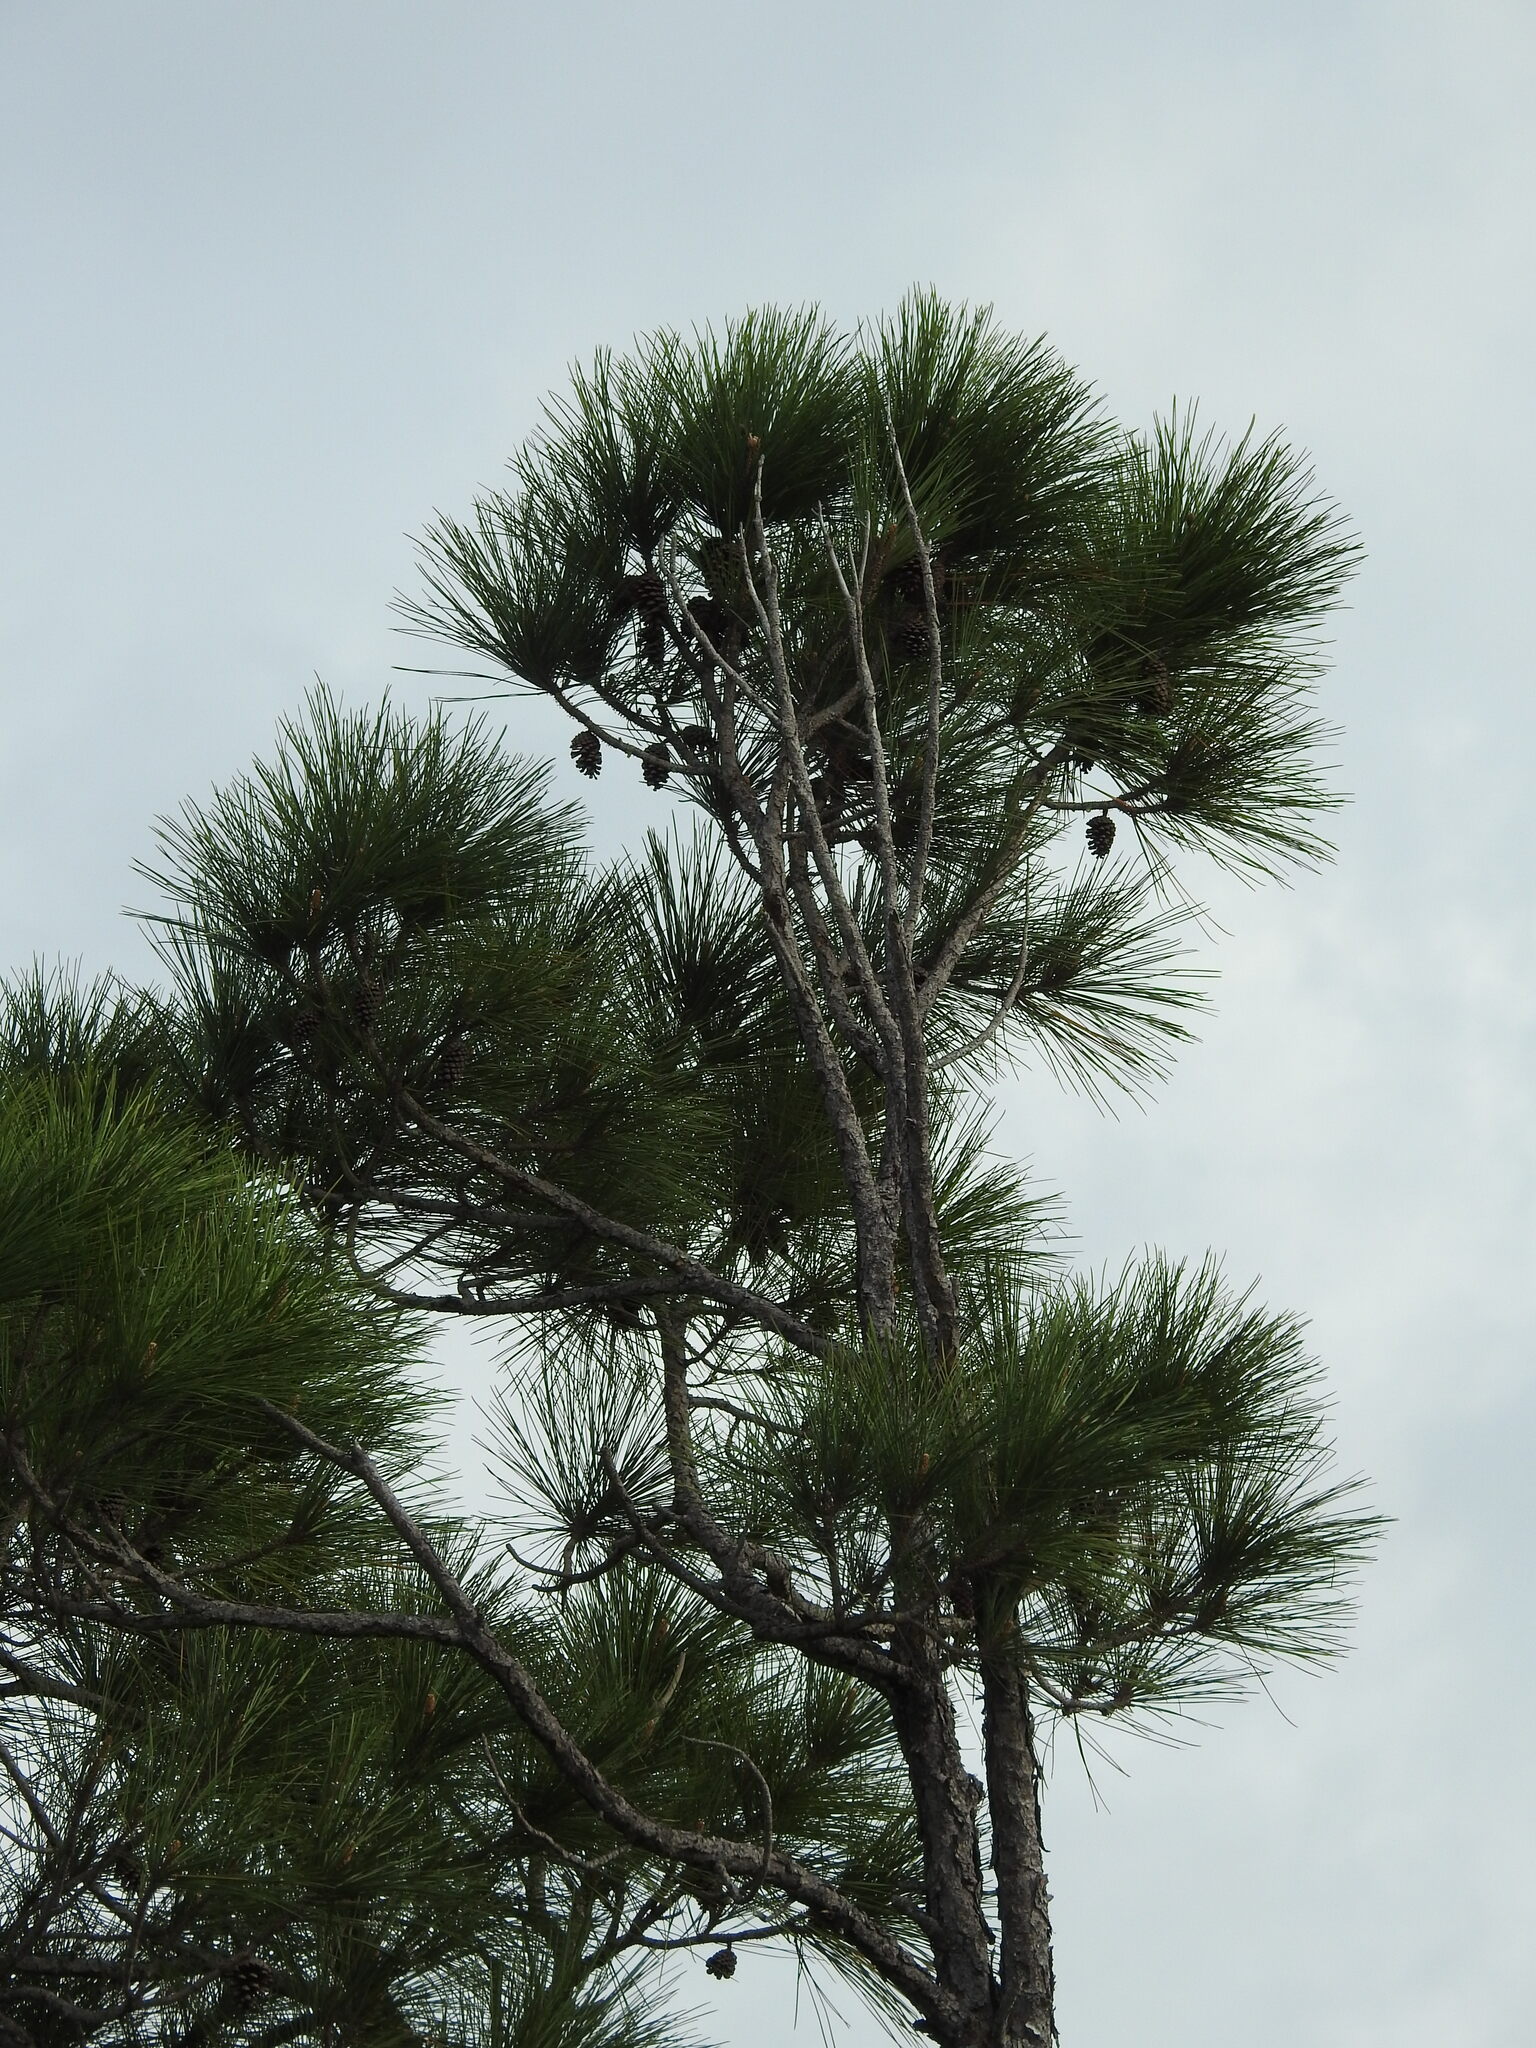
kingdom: Plantae
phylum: Tracheophyta
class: Pinopsida
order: Pinales
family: Pinaceae
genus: Pinus
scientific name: Pinus elliottii
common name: Slash pine
